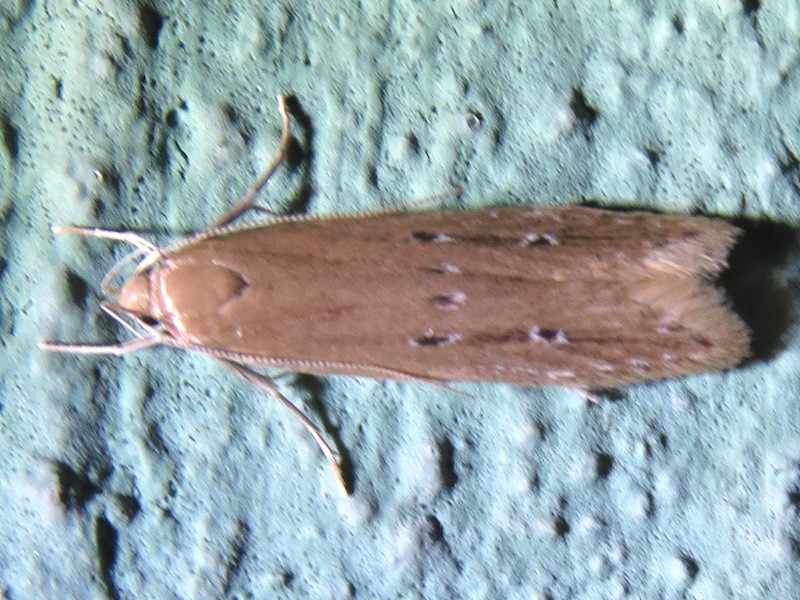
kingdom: Animalia
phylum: Arthropoda
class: Insecta
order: Lepidoptera
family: Cosmopterigidae
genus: Limnaecia
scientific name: Limnaecia phragmitella
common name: Bulrush cosmet
